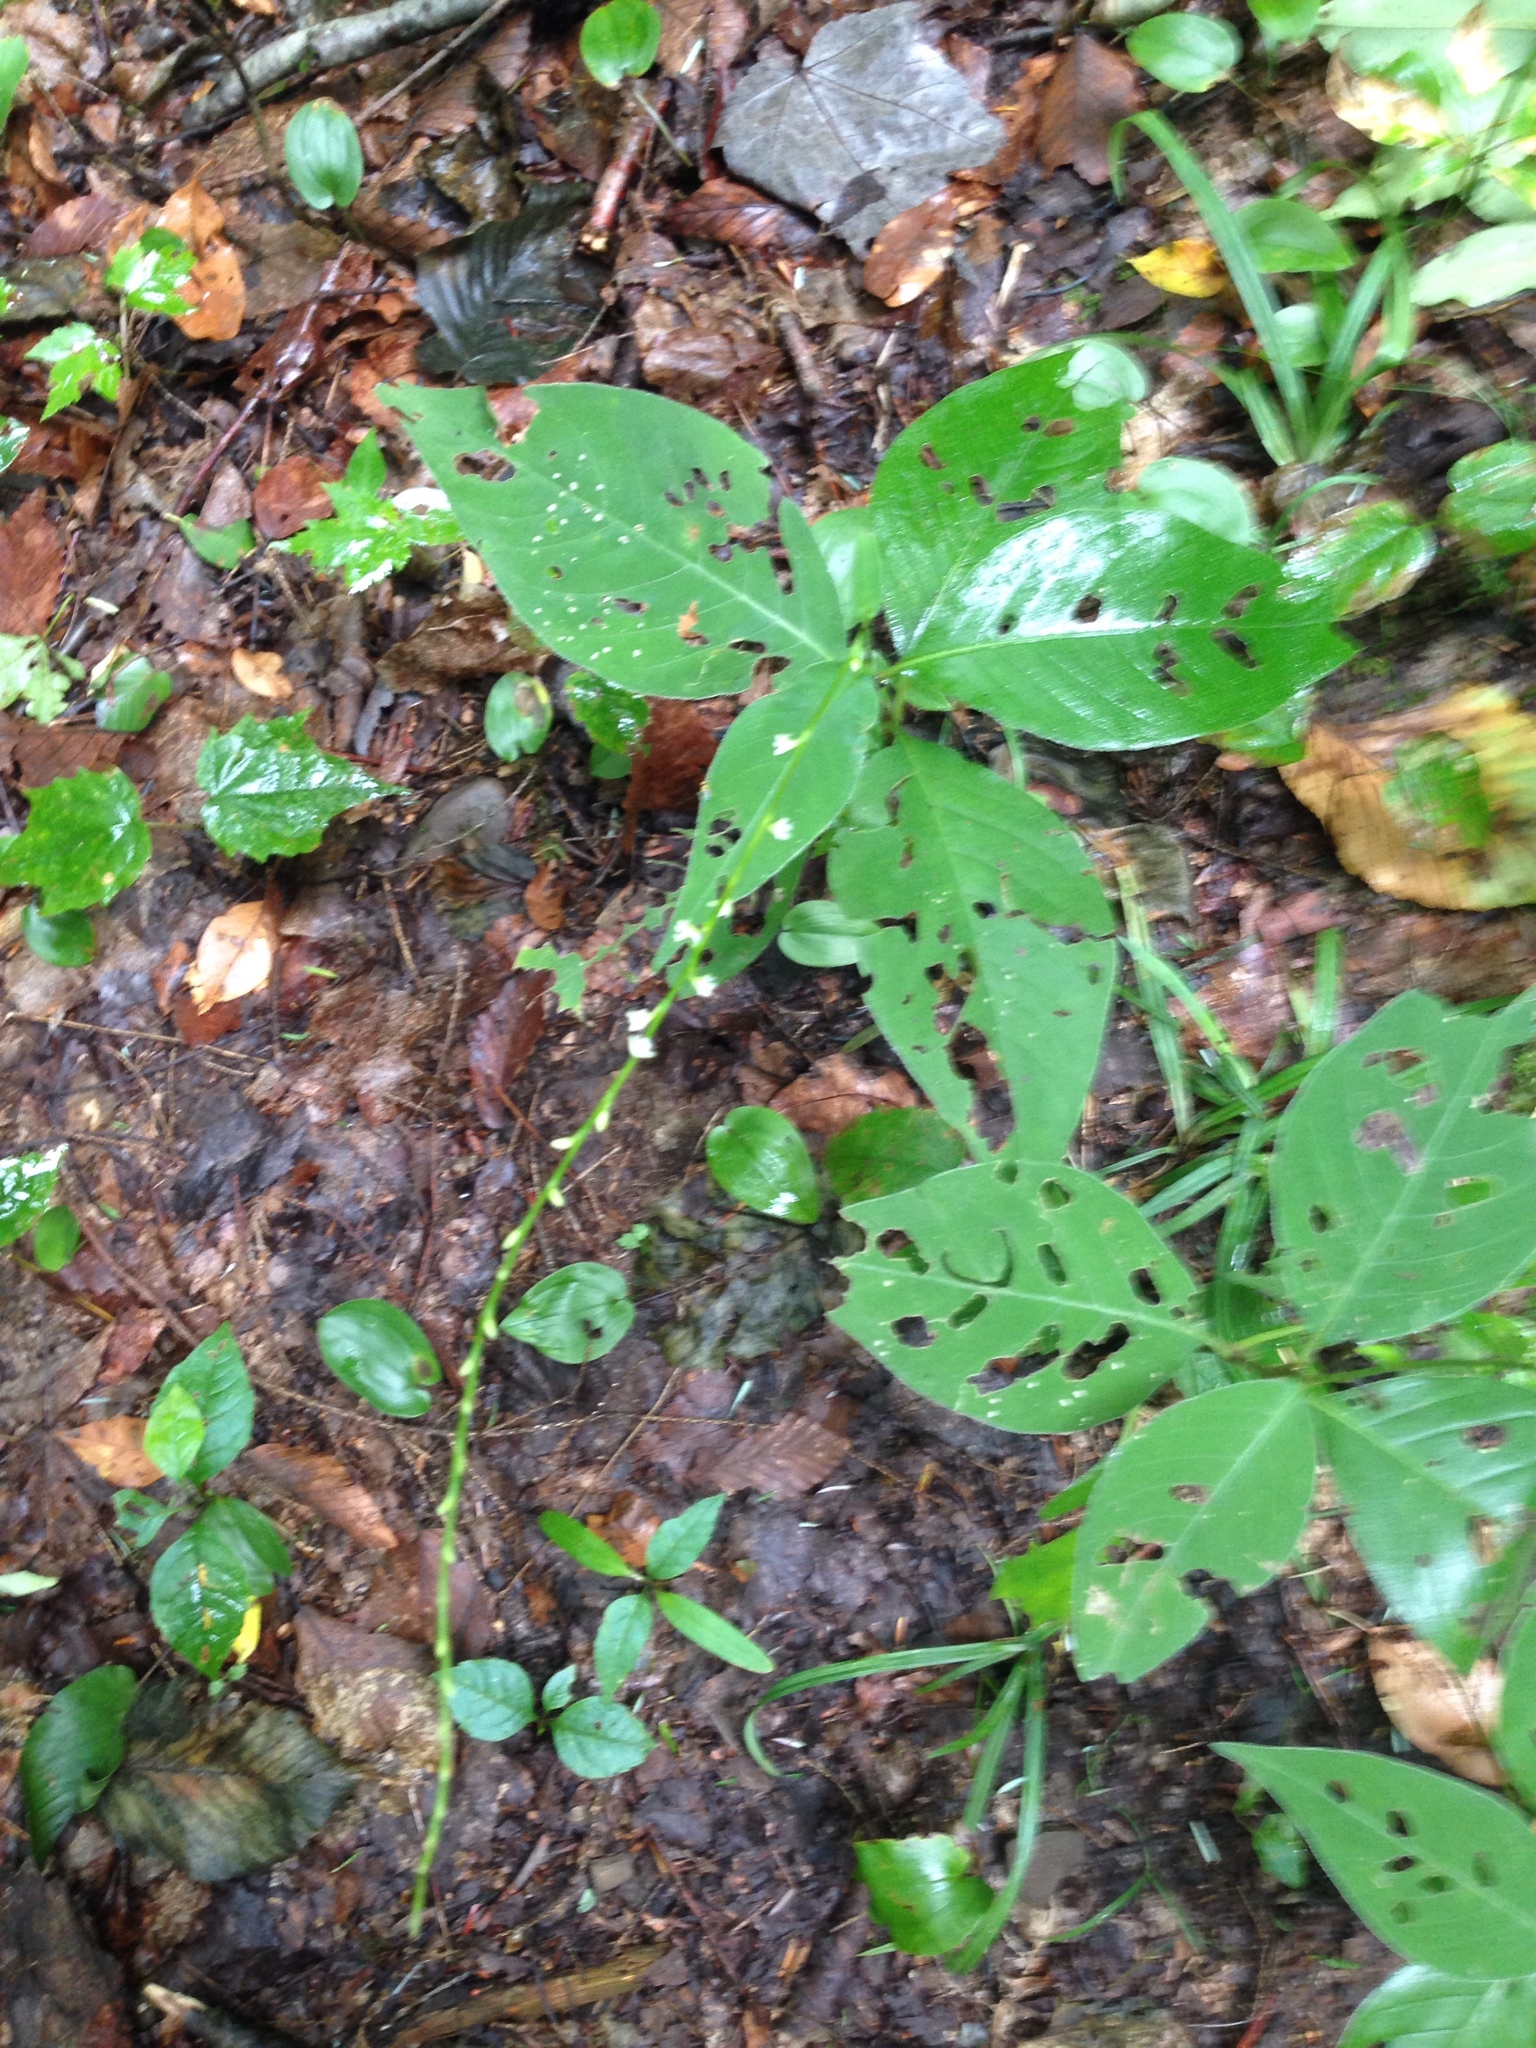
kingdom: Plantae
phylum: Tracheophyta
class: Magnoliopsida
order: Caryophyllales
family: Polygonaceae
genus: Persicaria
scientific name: Persicaria virginiana
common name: Jumpseed
